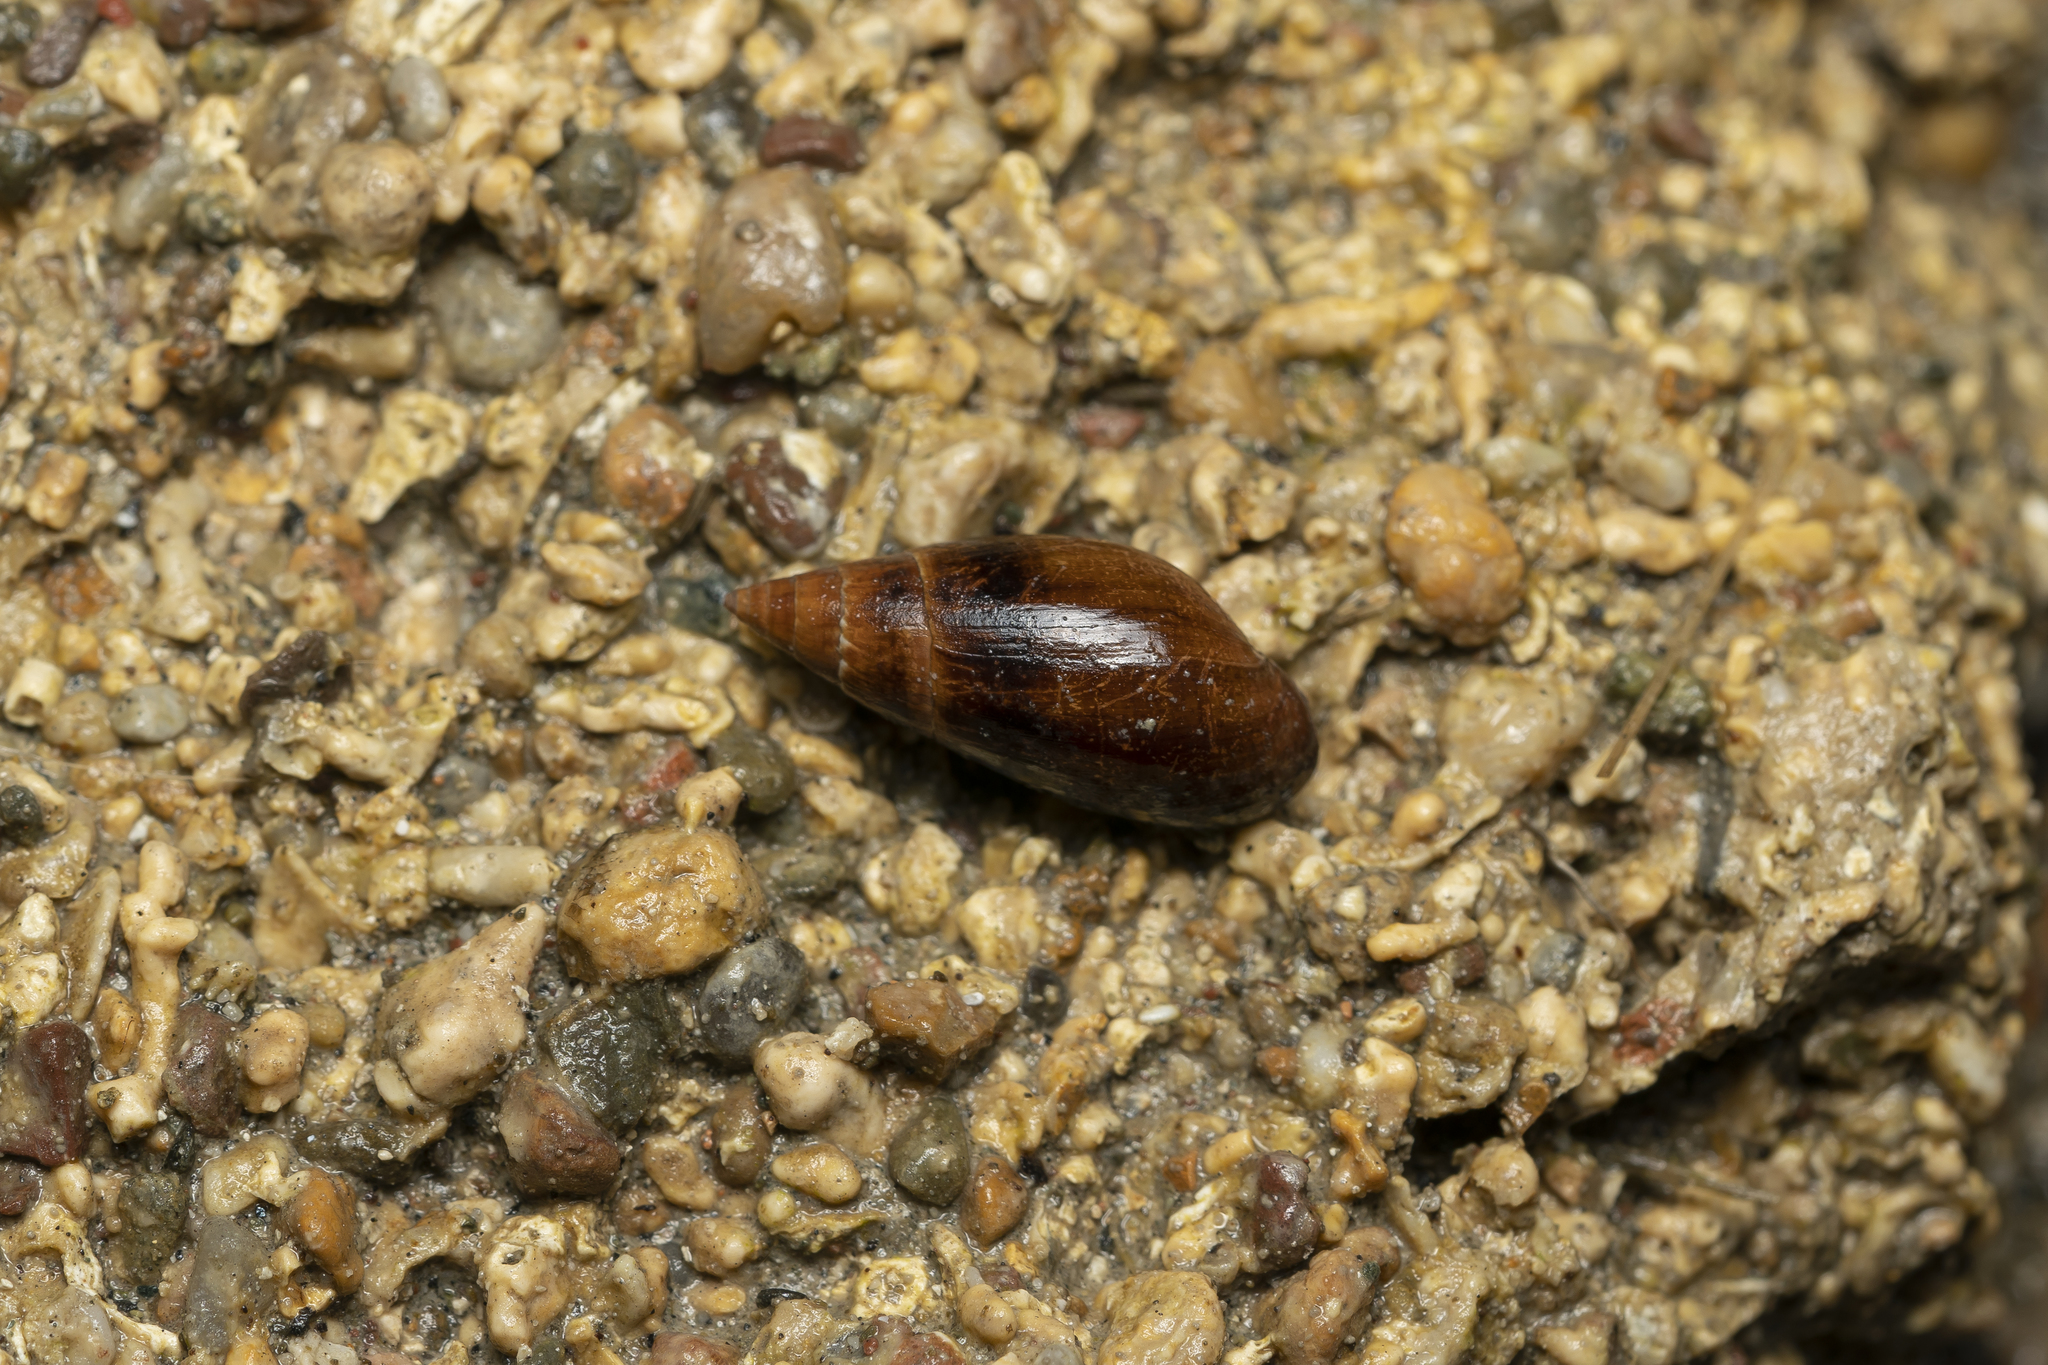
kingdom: Animalia
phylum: Mollusca
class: Gastropoda
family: Melanopsidae
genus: Melanopsis
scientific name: Melanopsis wagneri
